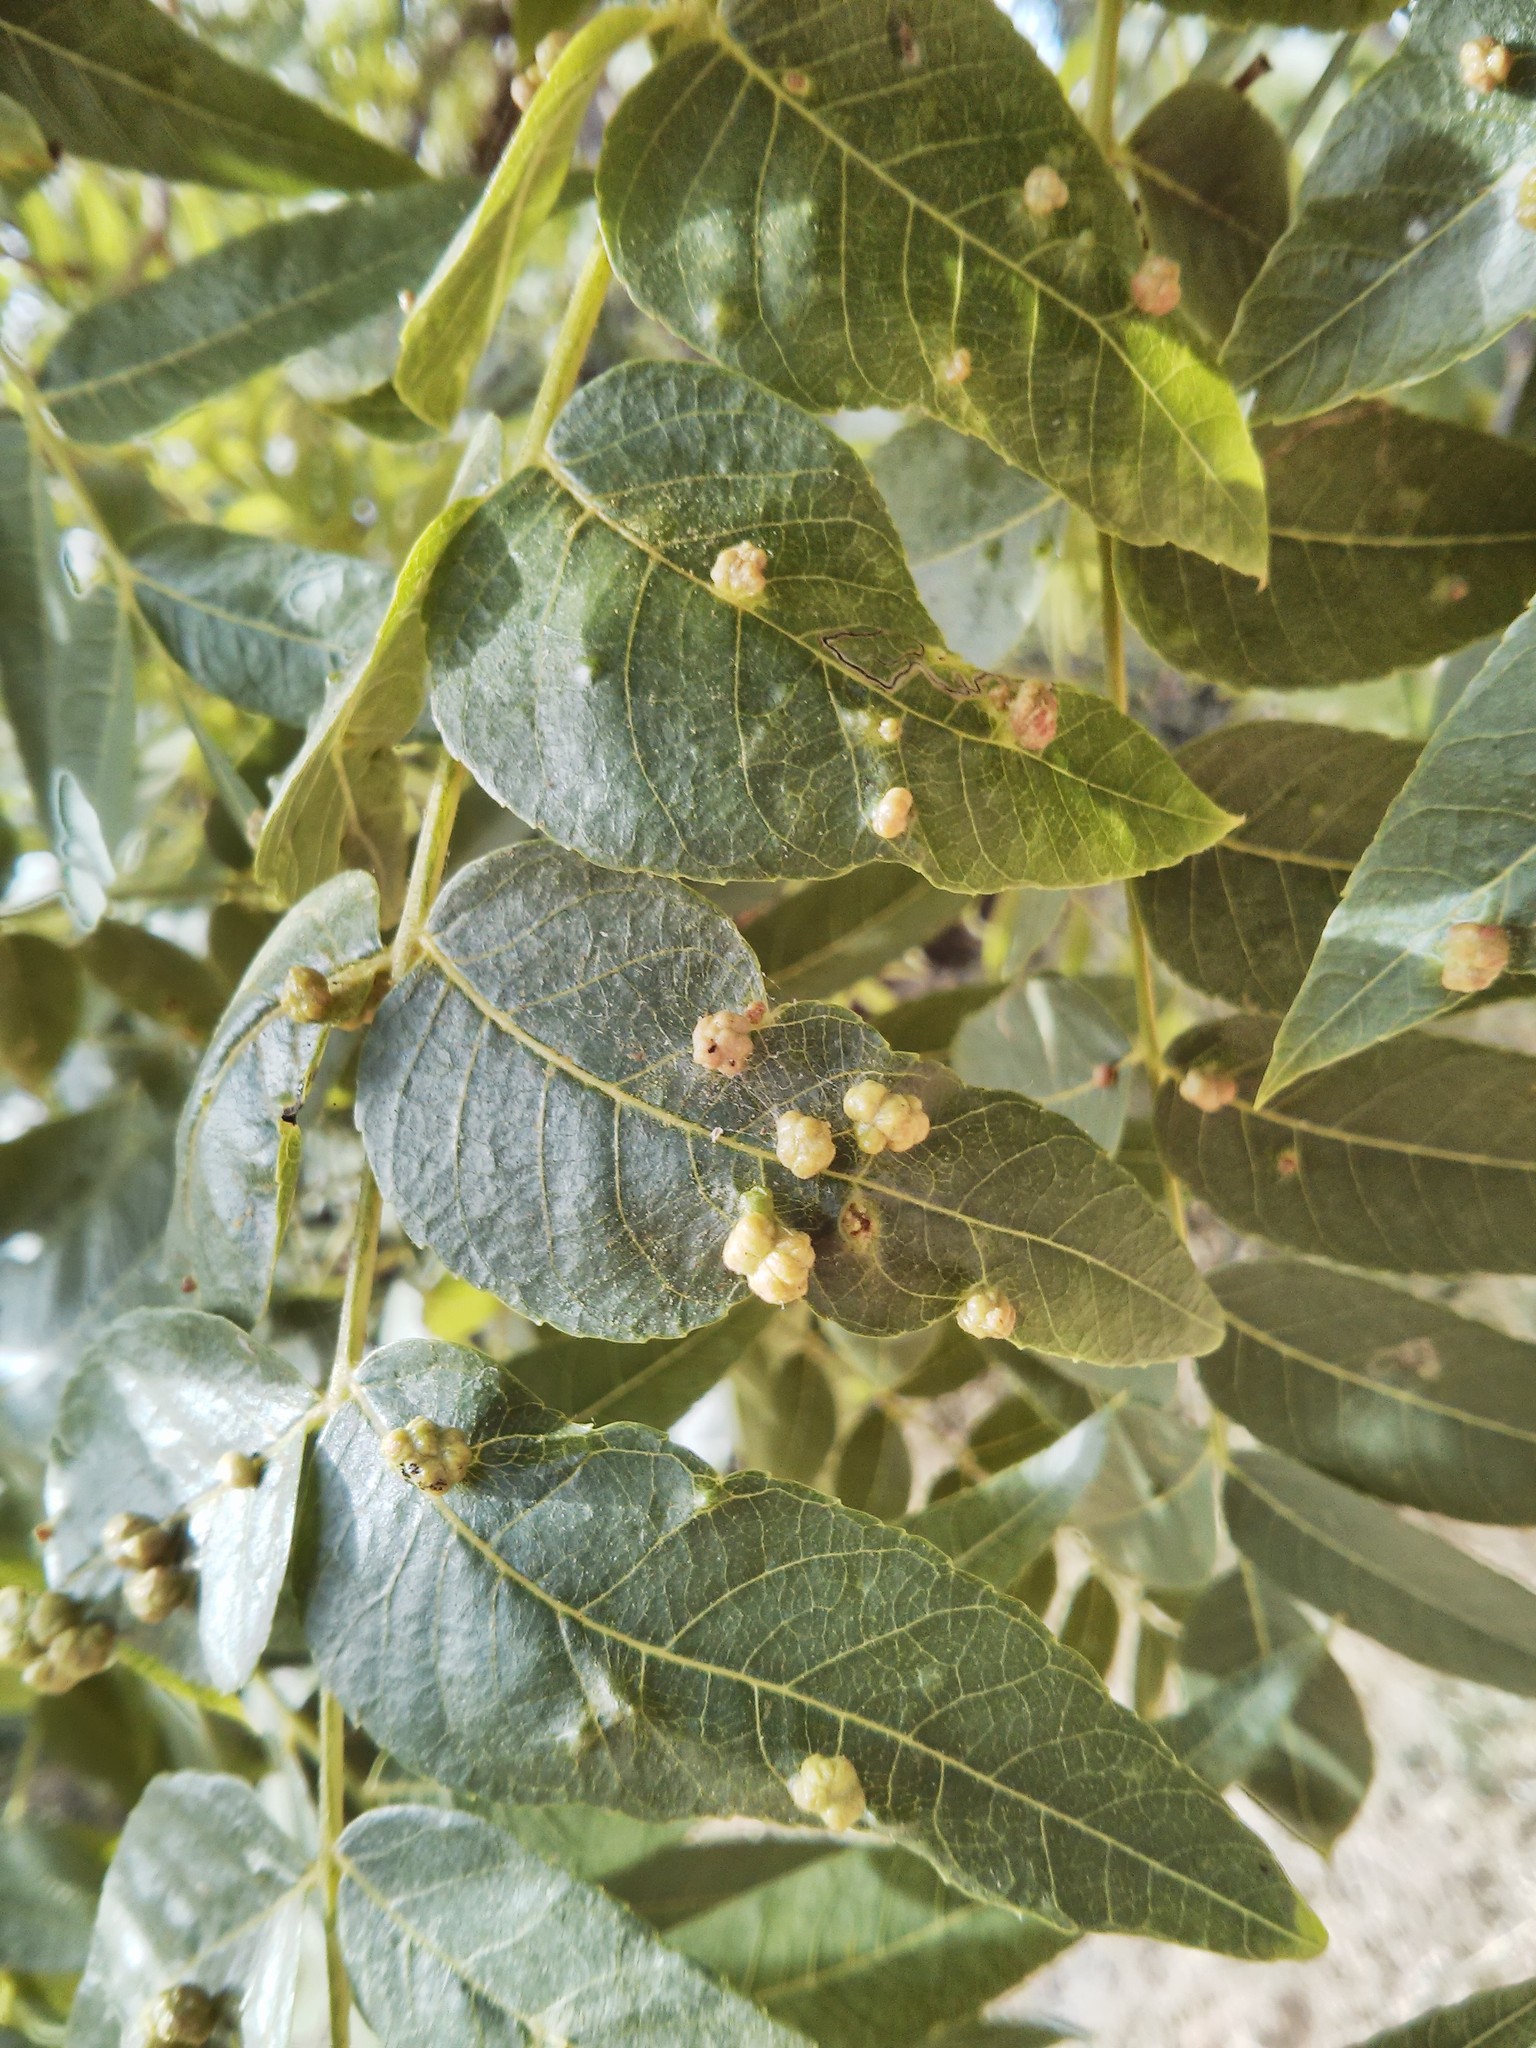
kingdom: Plantae
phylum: Tracheophyta
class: Magnoliopsida
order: Fagales
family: Juglandaceae
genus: Juglans
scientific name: Juglans hindsii
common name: Northern california black walnut
